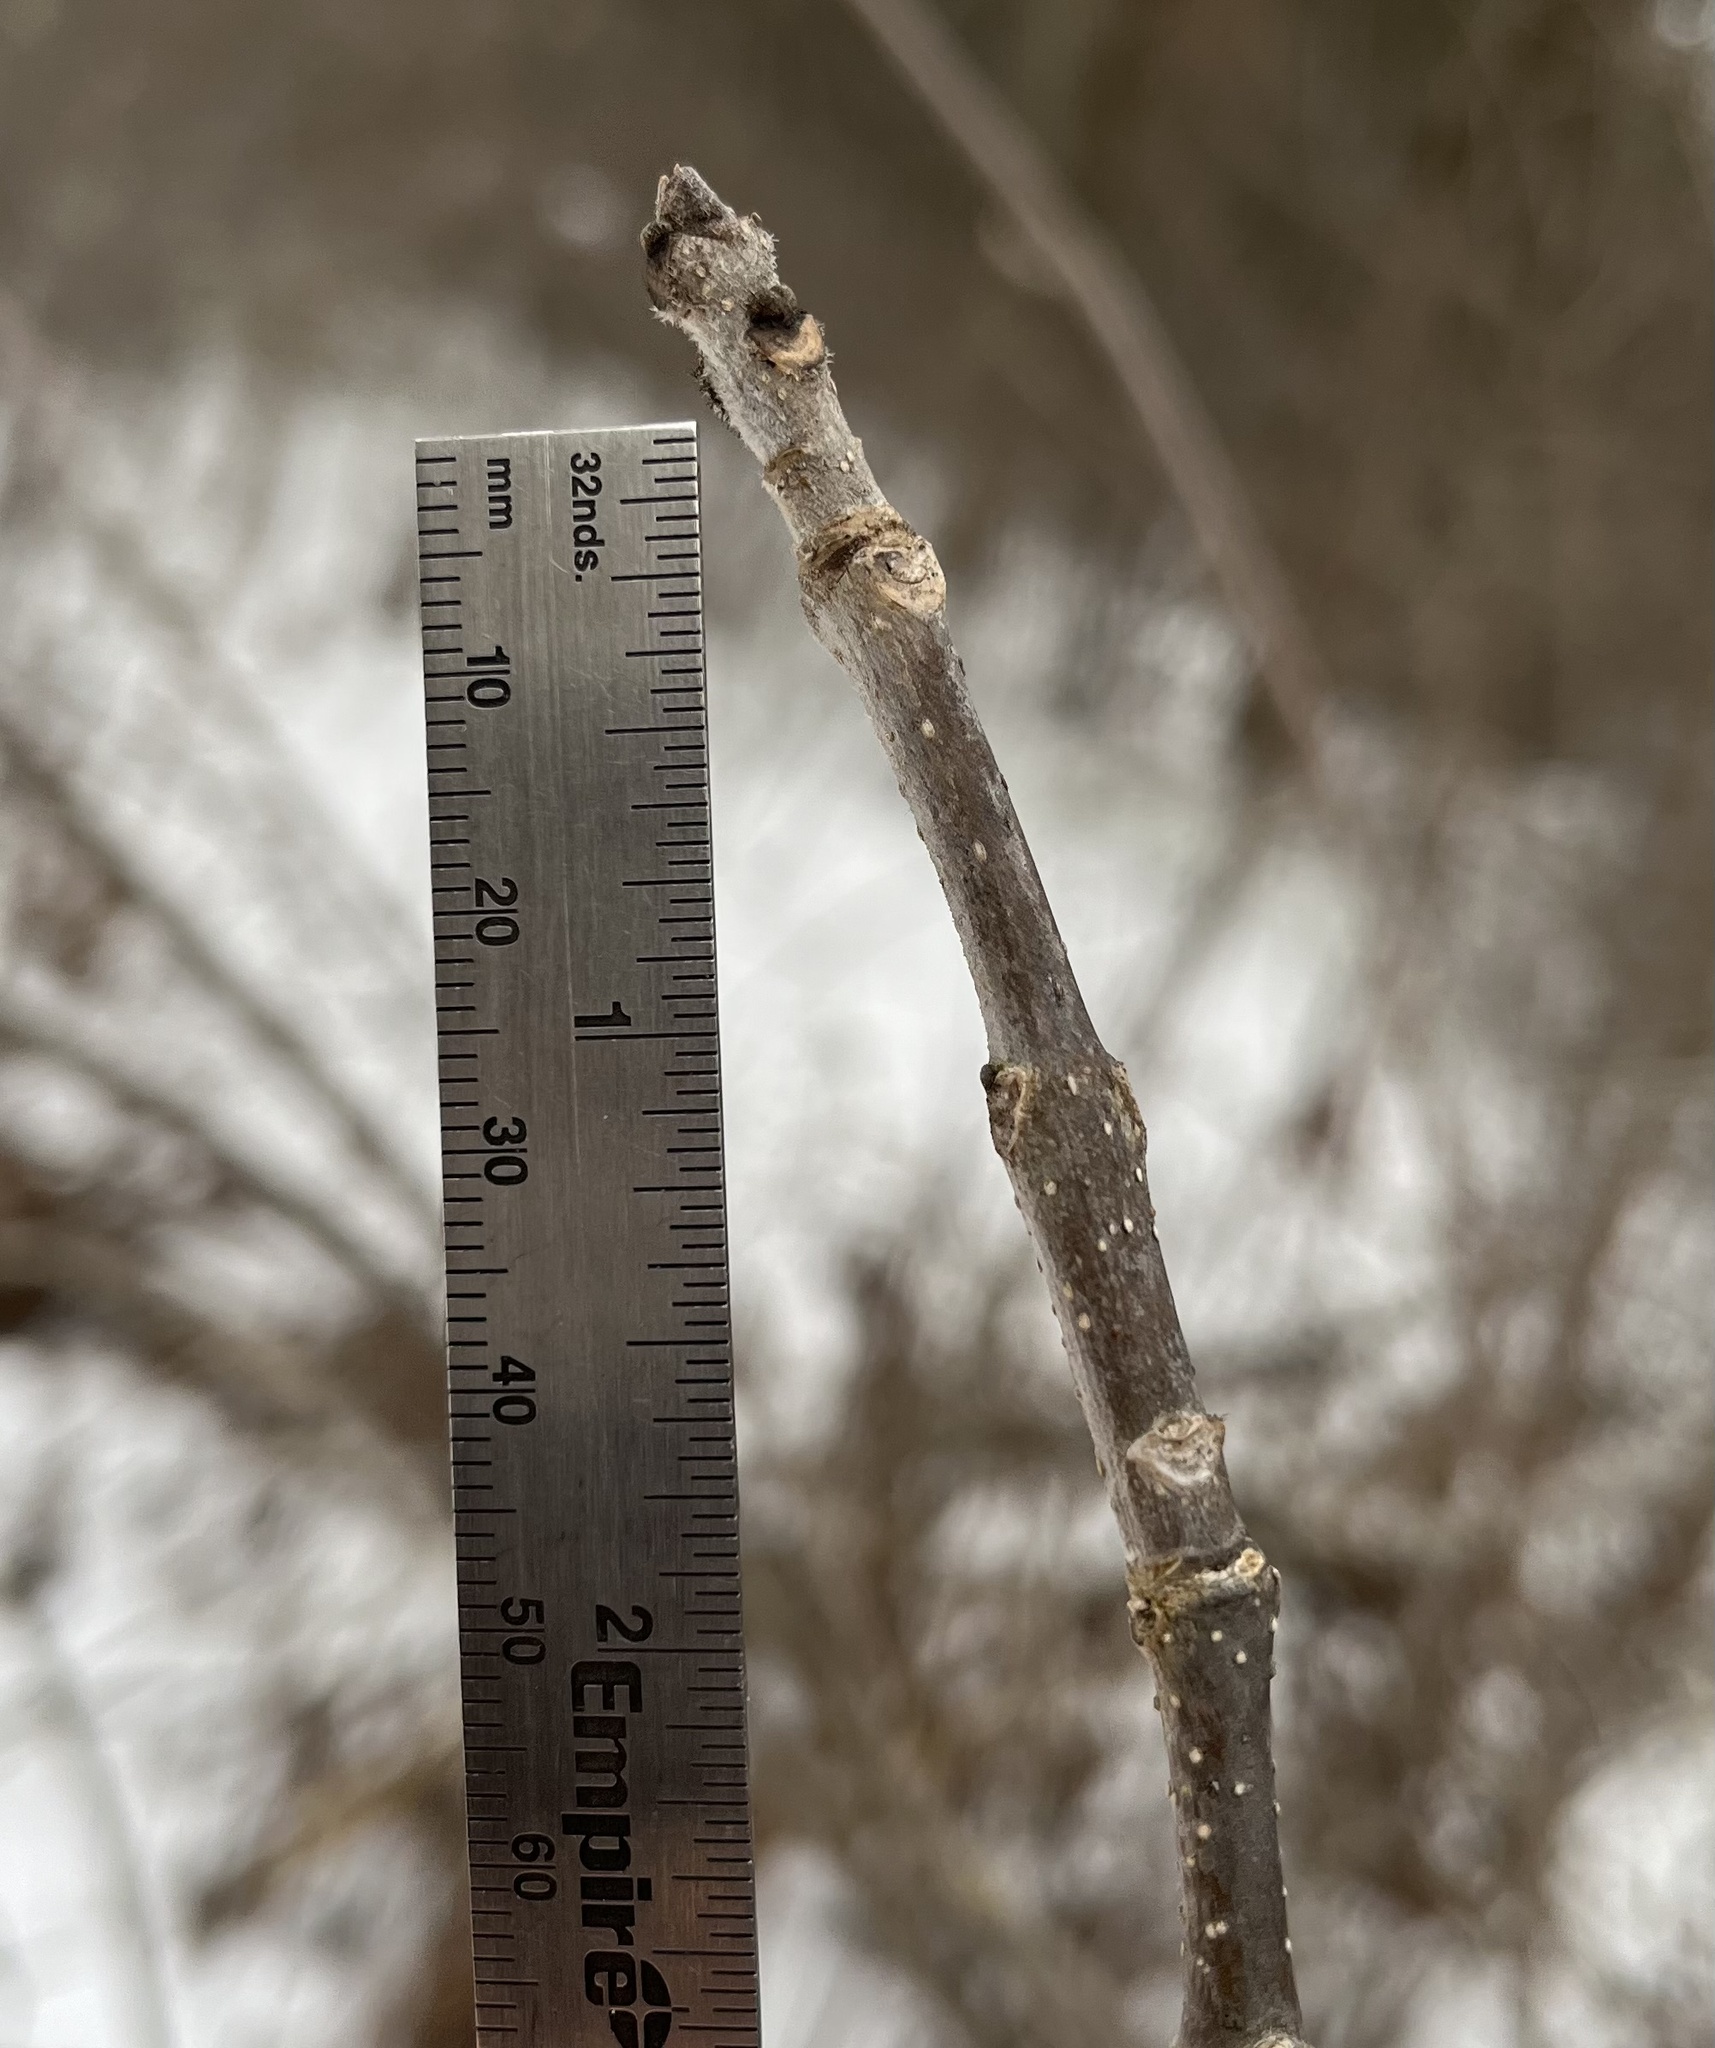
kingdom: Plantae
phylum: Tracheophyta
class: Magnoliopsida
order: Lamiales
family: Oleaceae
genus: Fraxinus
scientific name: Fraxinus pennsylvanica
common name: Green ash
